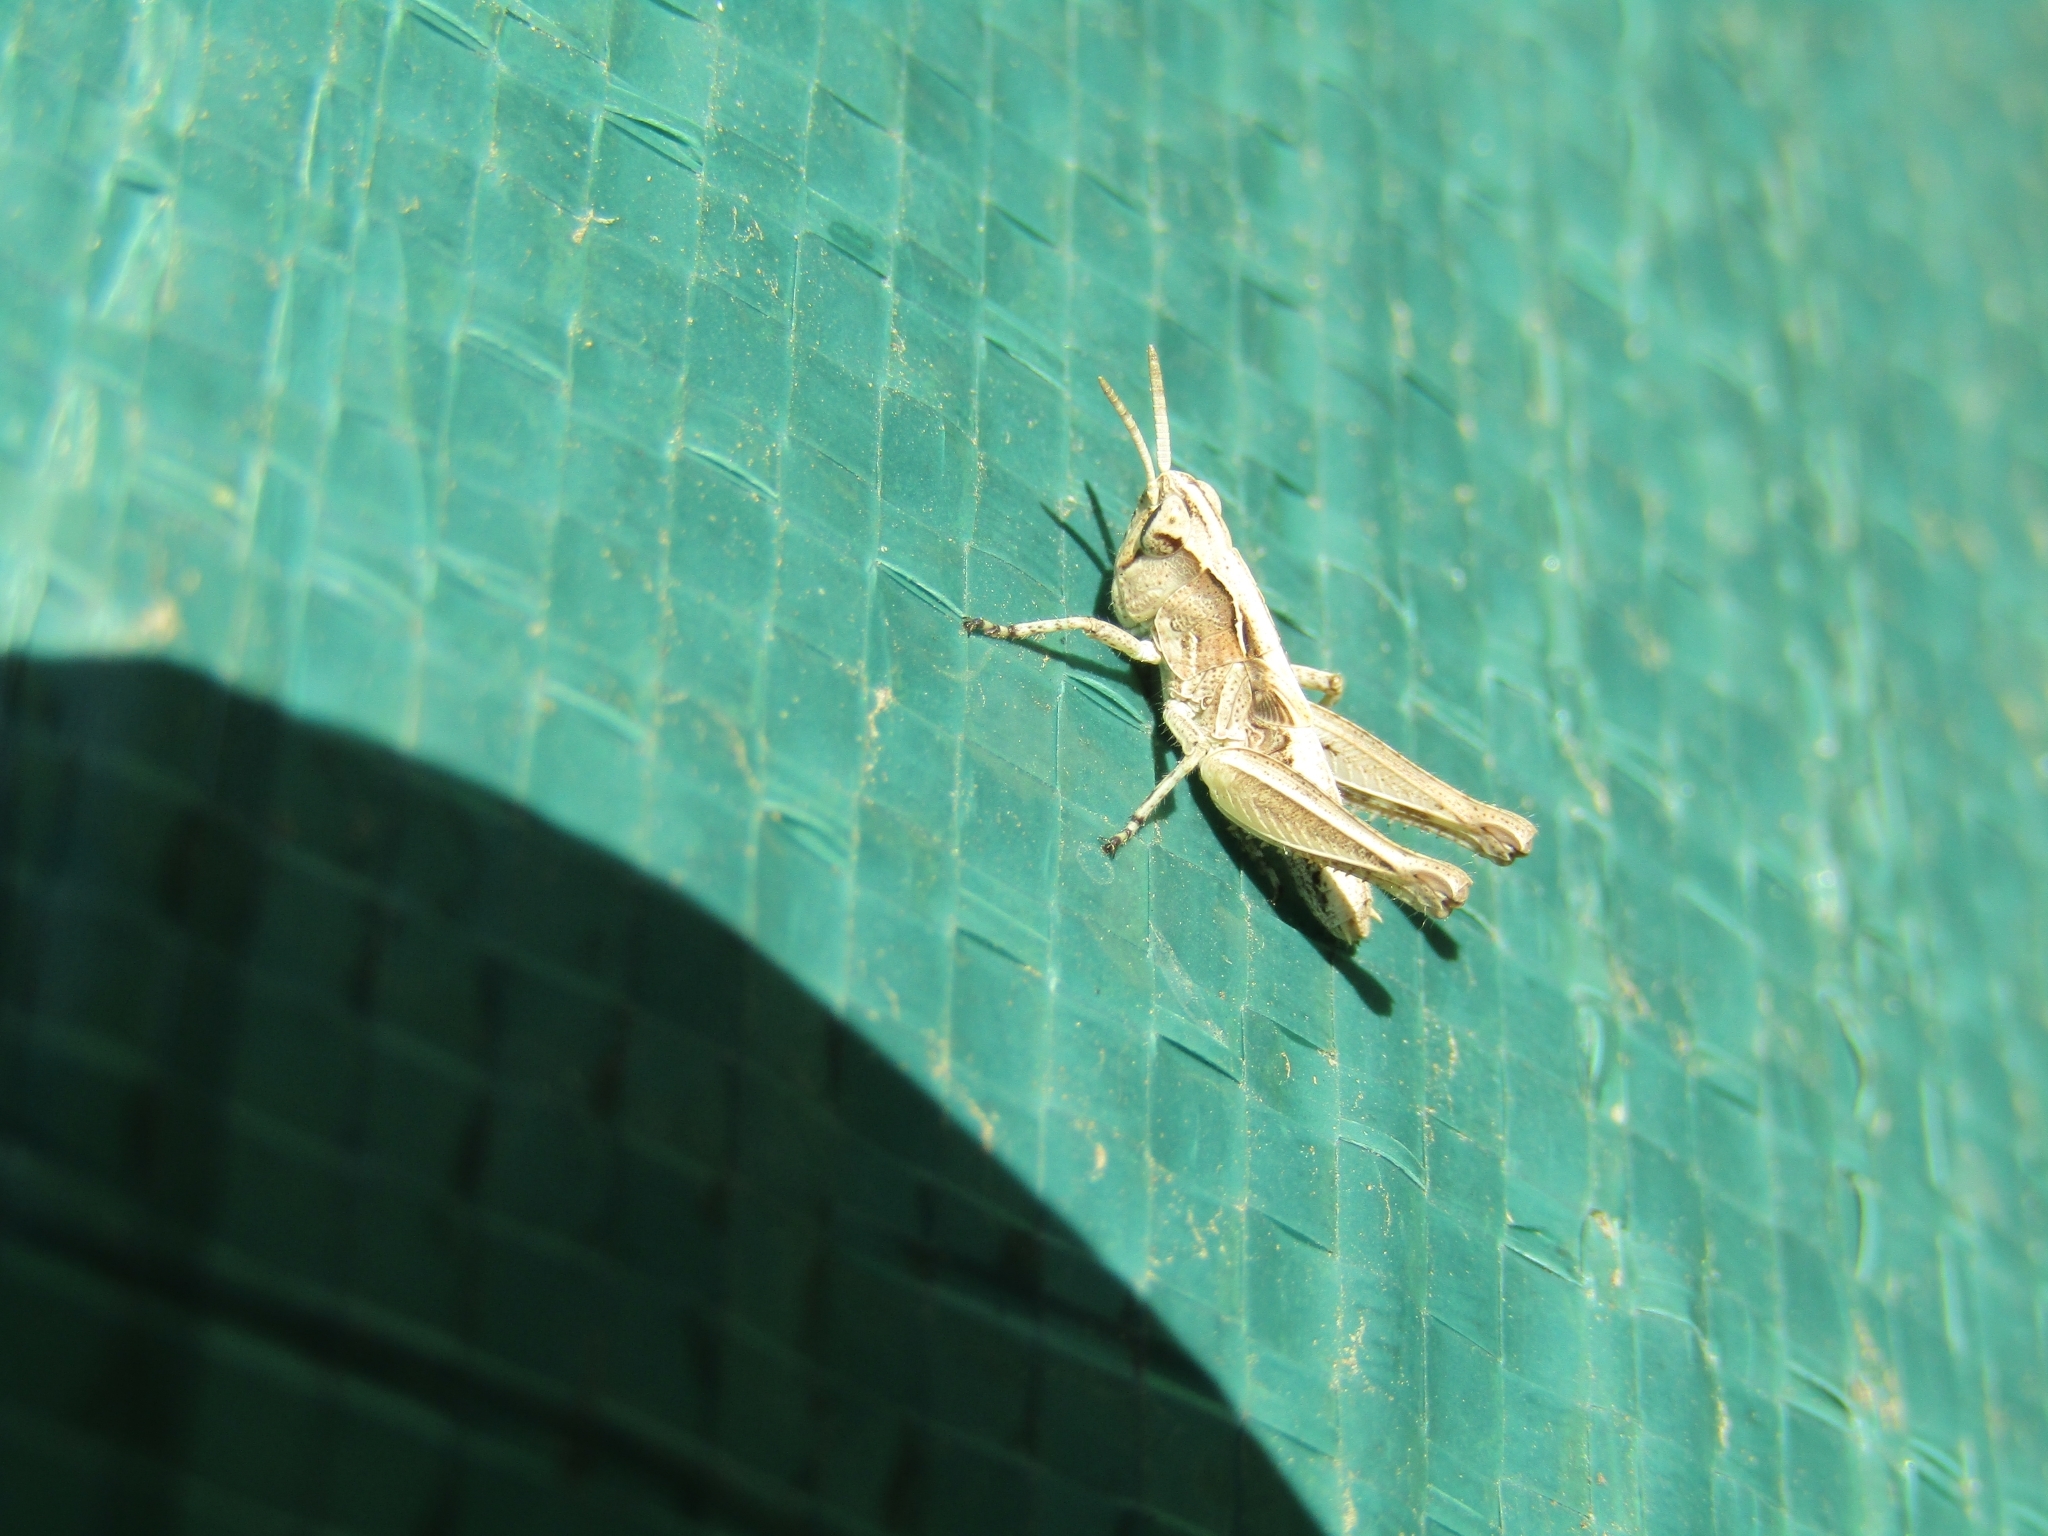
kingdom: Animalia
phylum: Arthropoda
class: Insecta
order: Orthoptera
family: Acrididae
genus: Orphulella
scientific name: Orphulella punctata
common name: Slant-faced grasshopper
